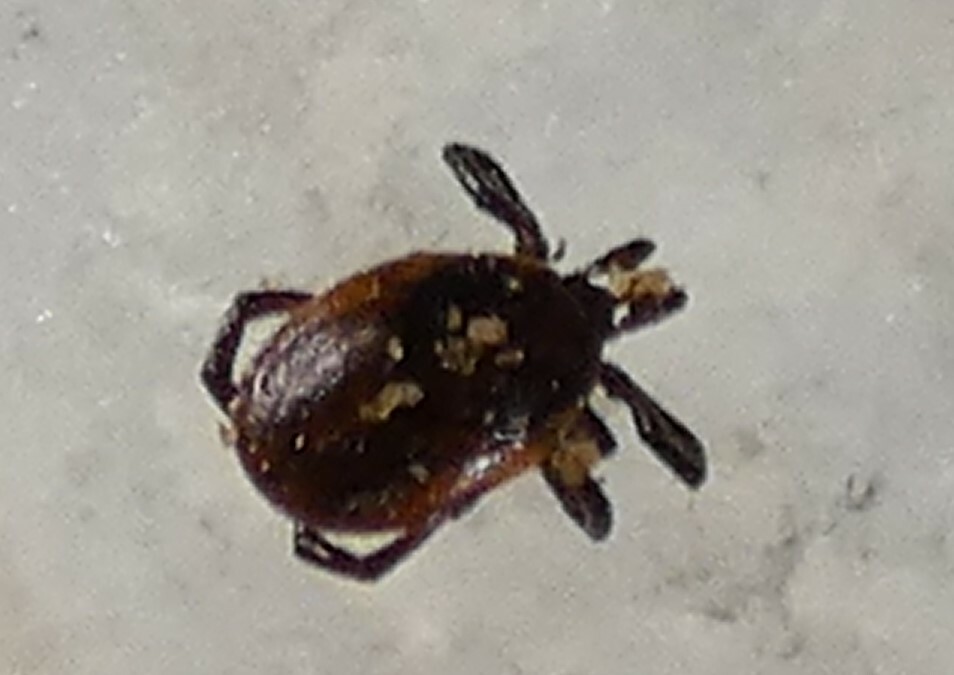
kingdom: Animalia
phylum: Arthropoda
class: Arachnida
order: Ixodida
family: Ixodidae
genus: Ixodes
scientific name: Ixodes scapularis
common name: Black legged tick
